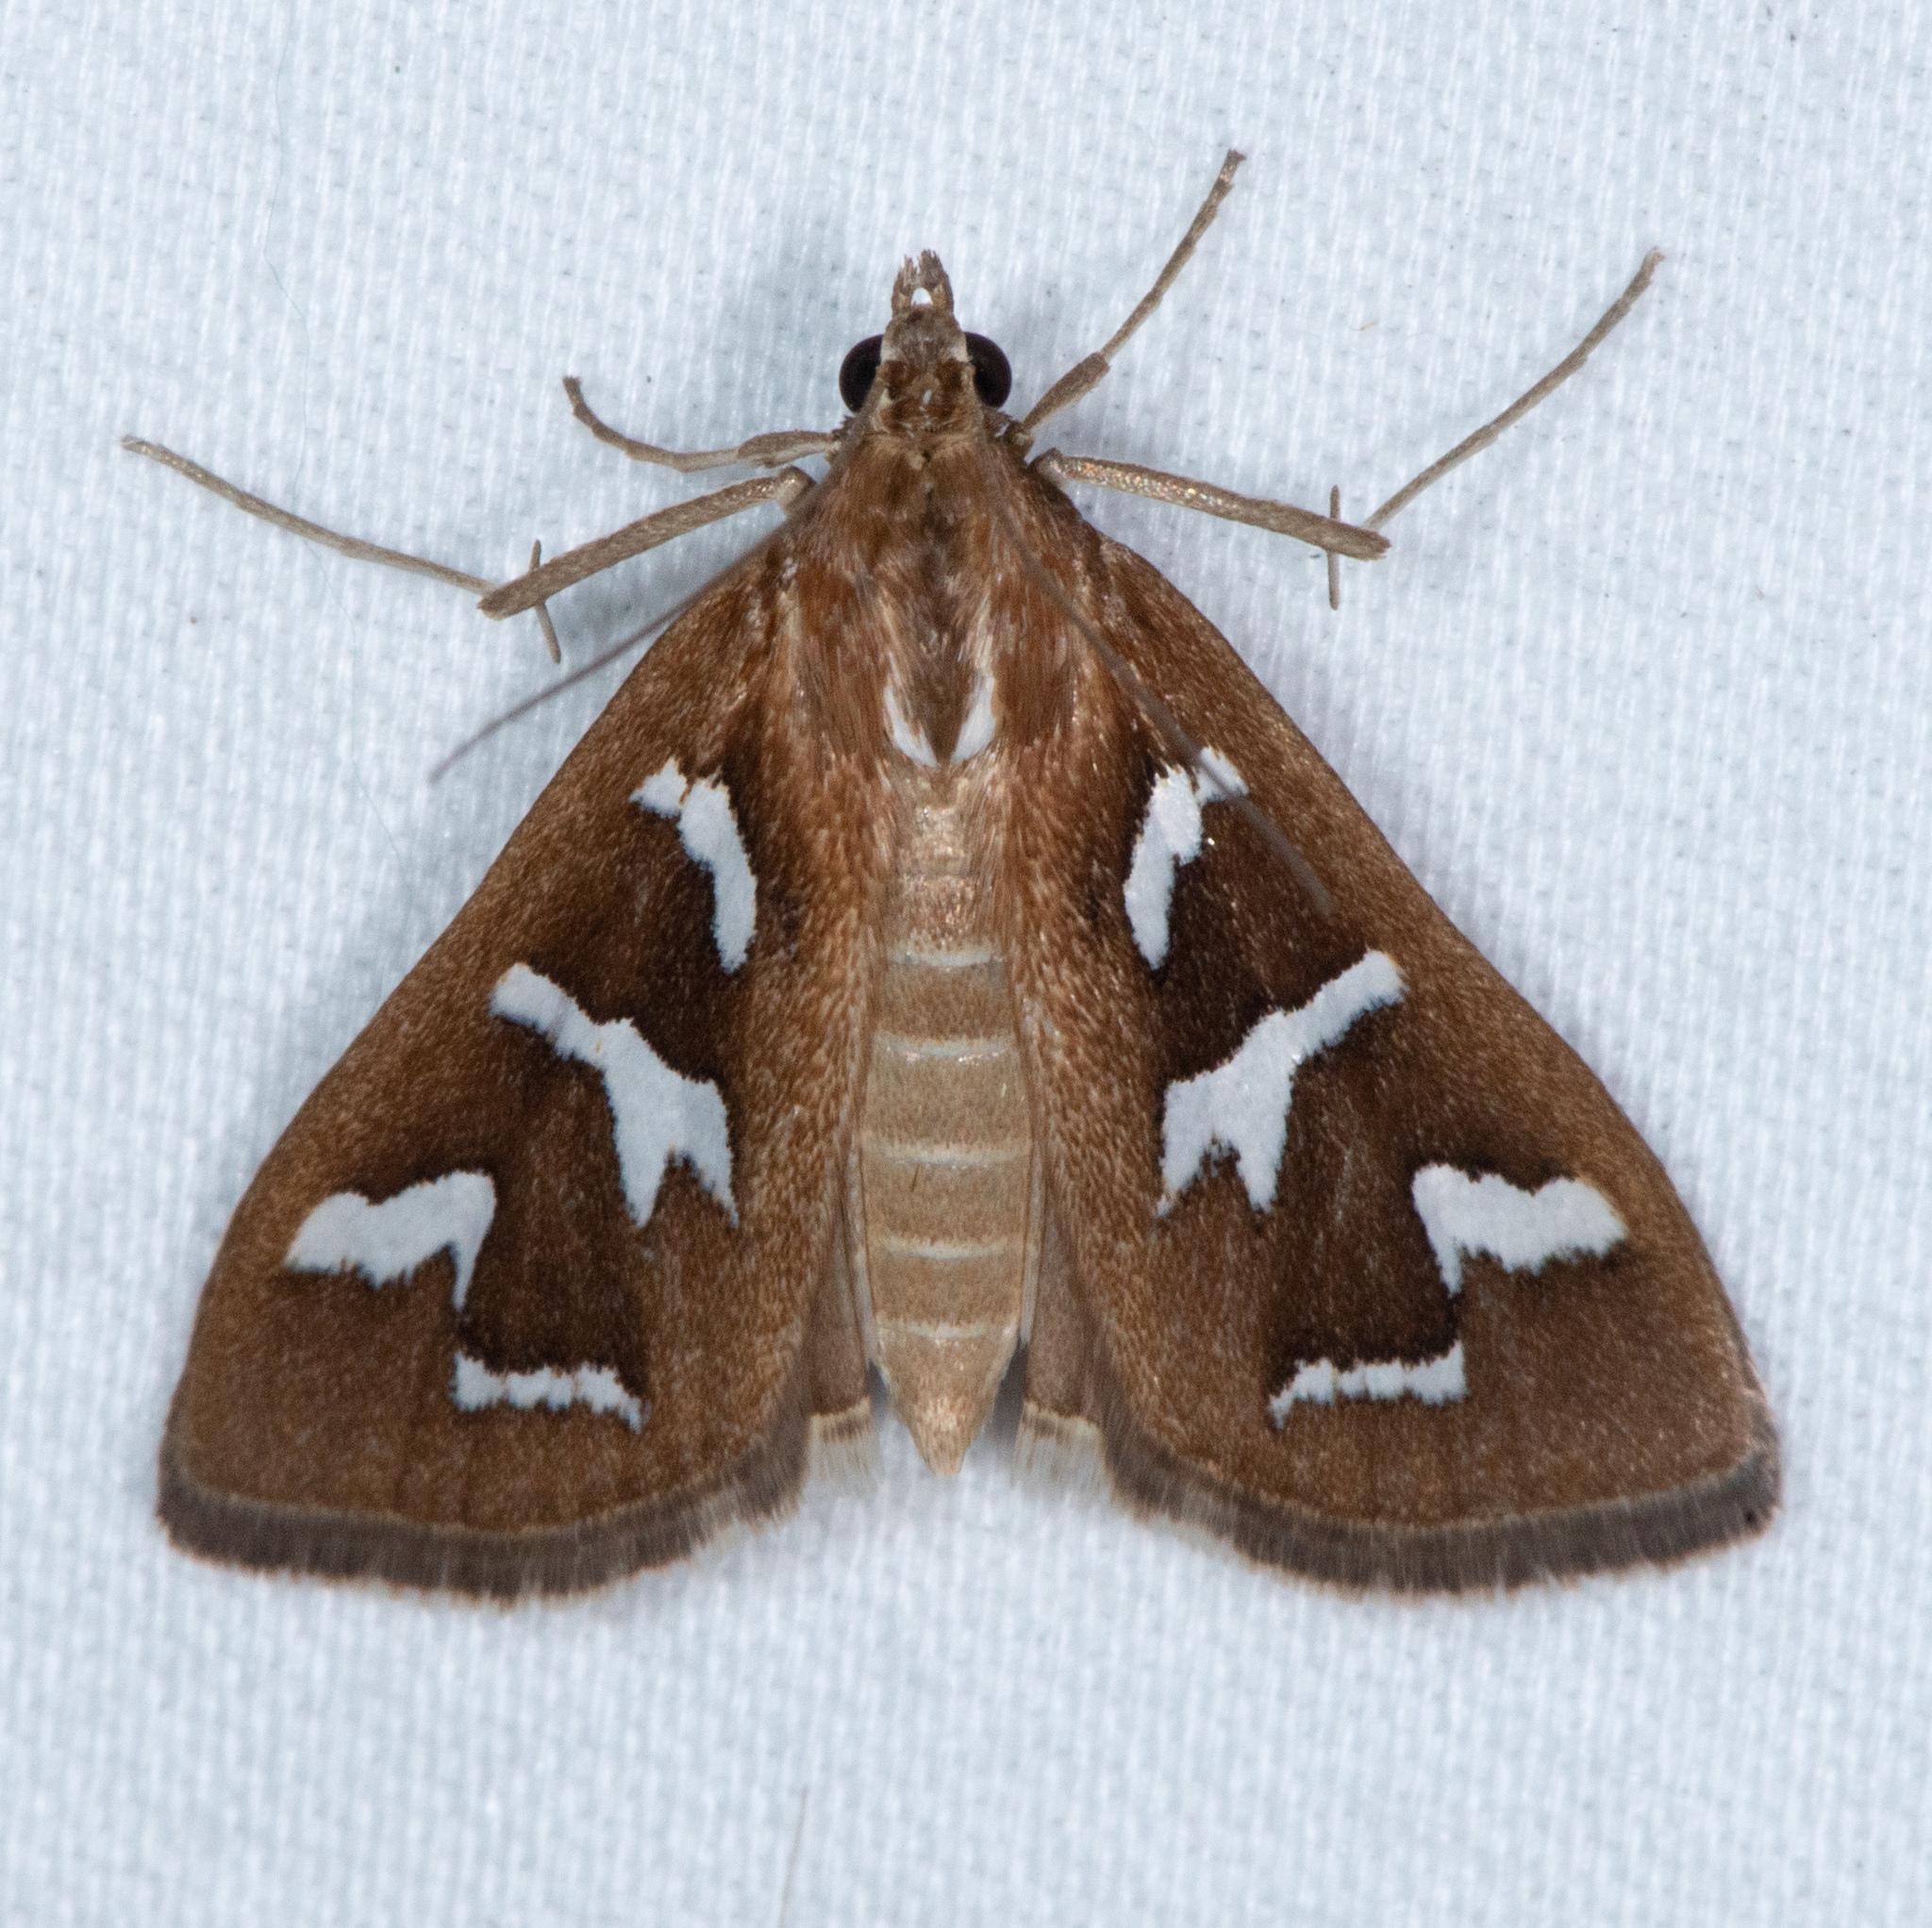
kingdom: Animalia
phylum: Arthropoda
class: Insecta
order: Lepidoptera
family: Crambidae
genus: Diastictis
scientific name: Diastictis fracturalis
